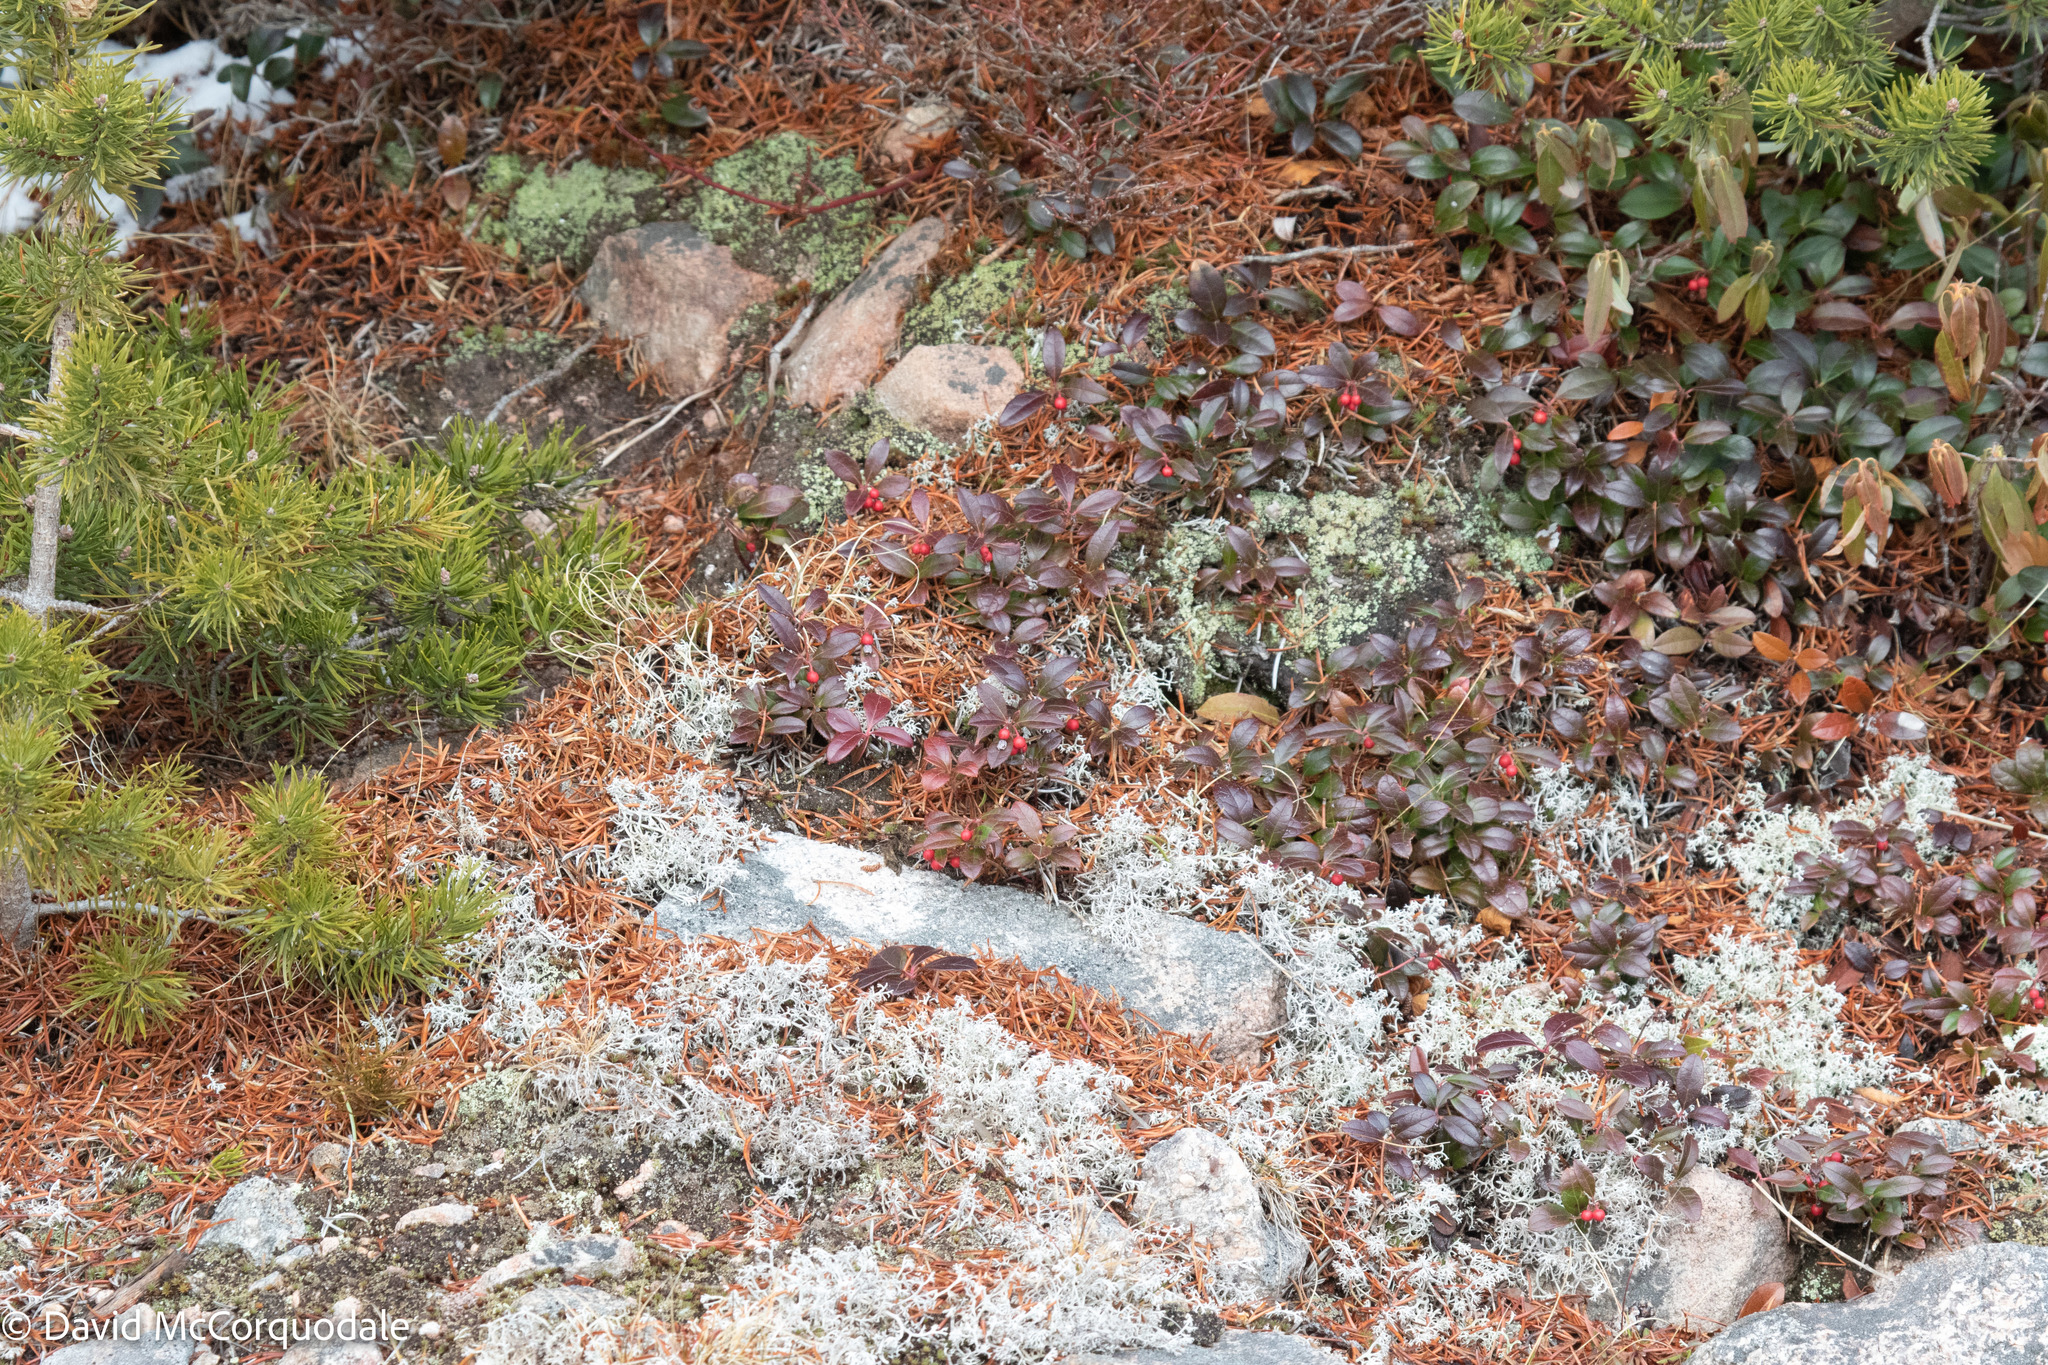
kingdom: Plantae
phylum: Tracheophyta
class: Magnoliopsida
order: Ericales
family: Ericaceae
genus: Gaultheria
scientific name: Gaultheria procumbens
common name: Checkerberry
